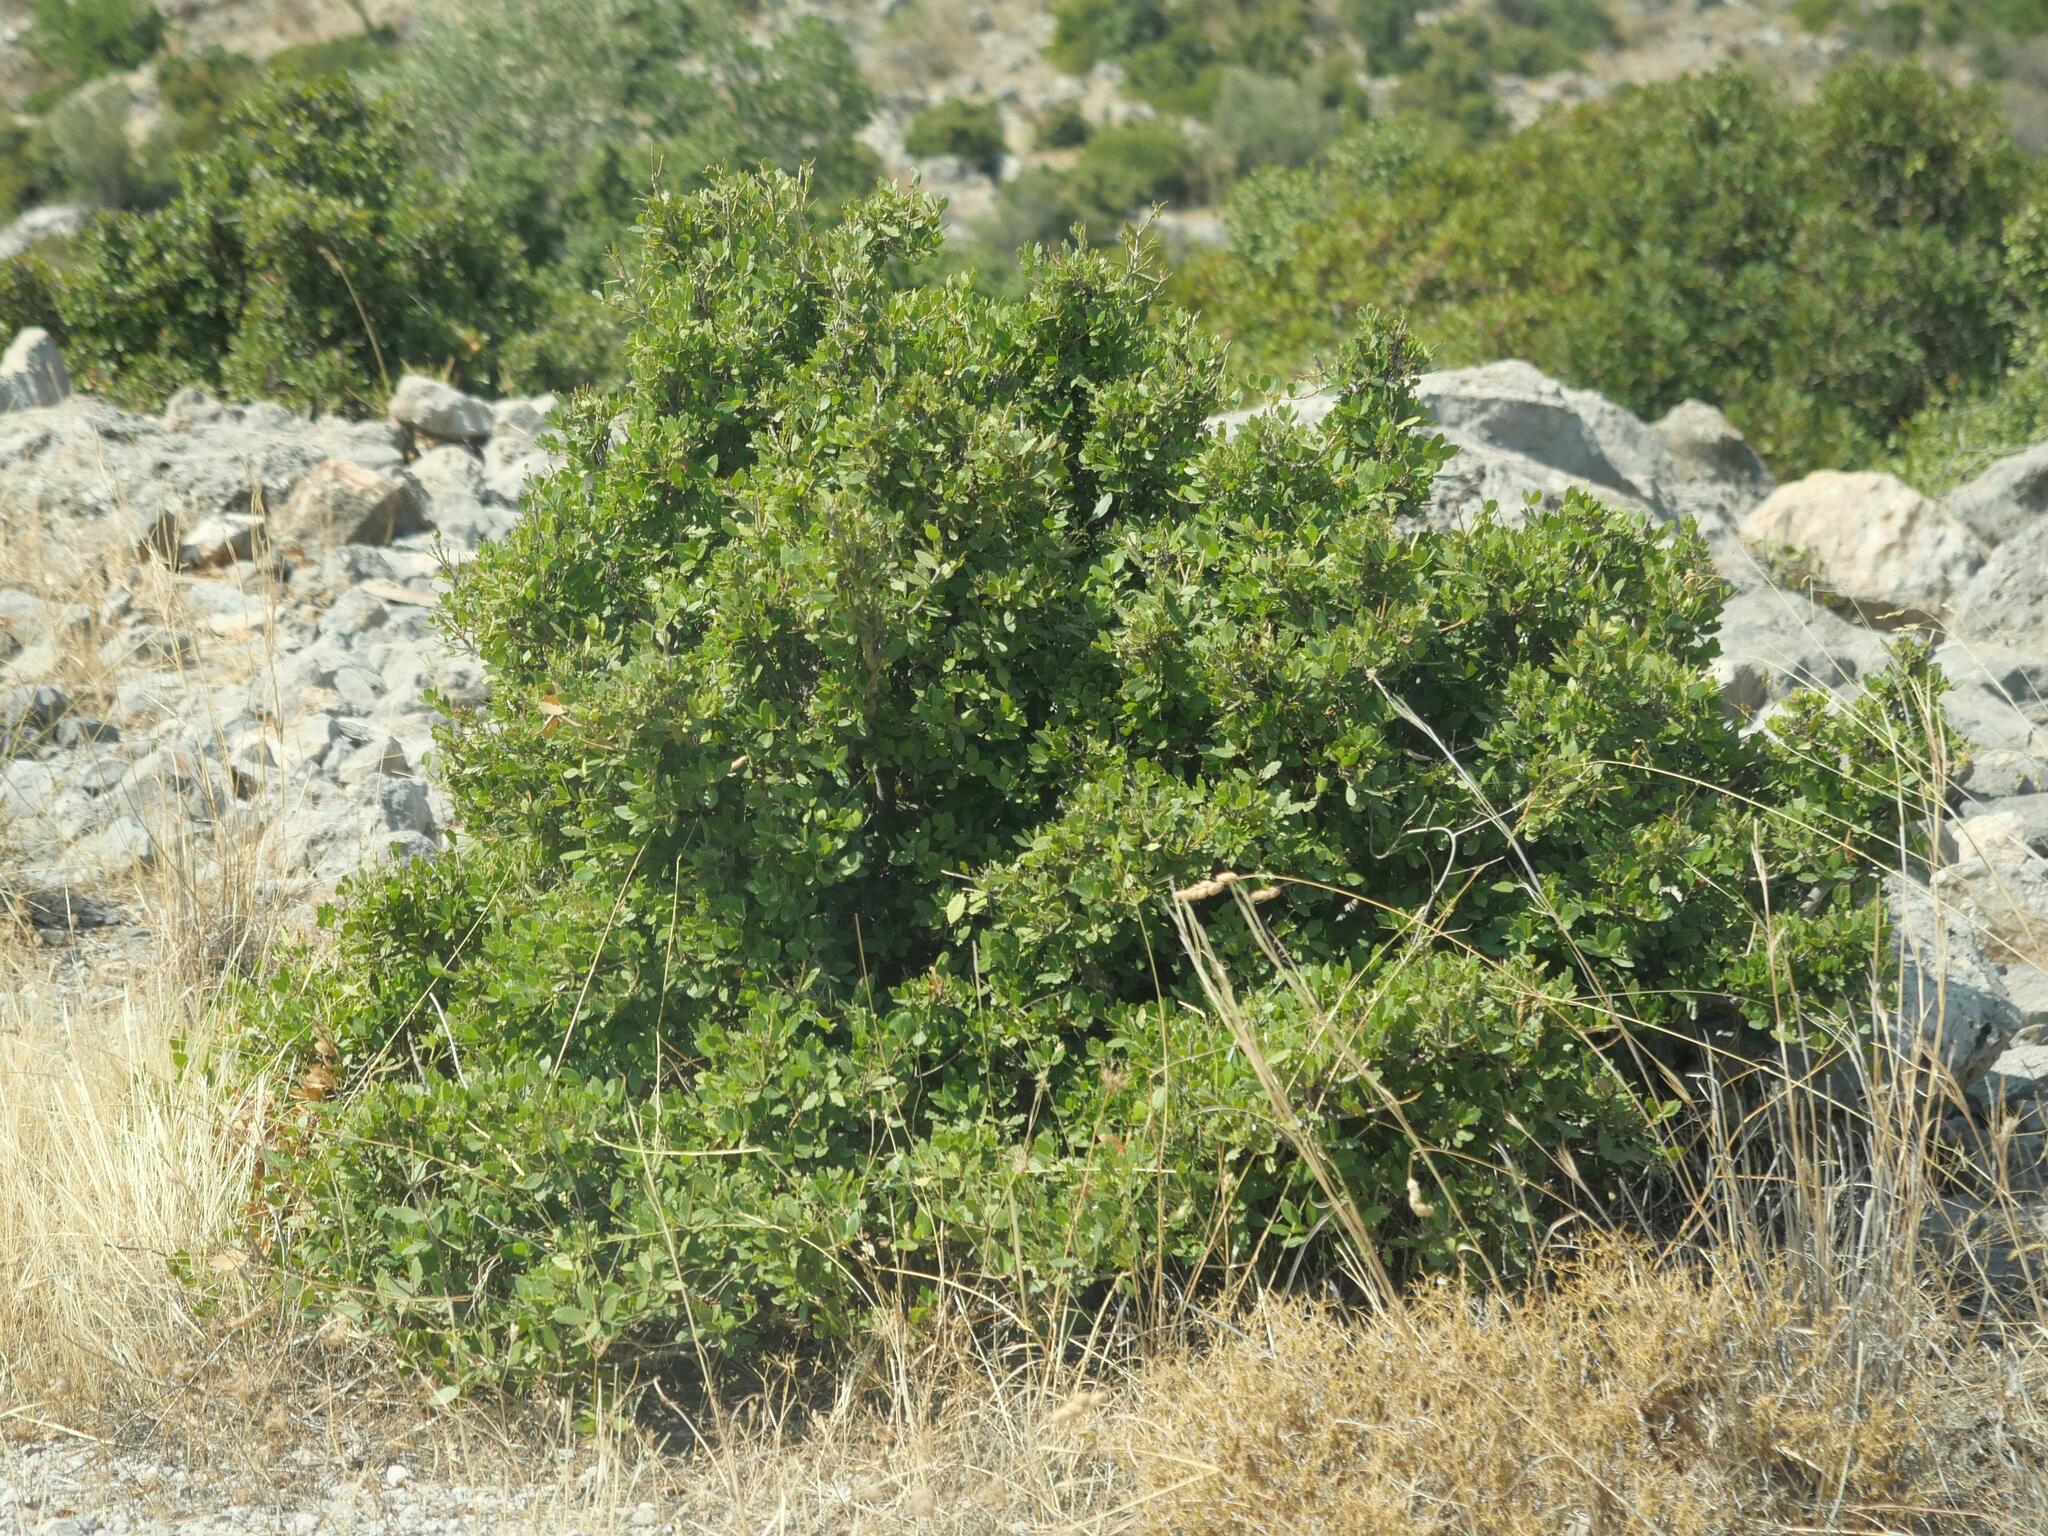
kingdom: Plantae
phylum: Tracheophyta
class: Magnoliopsida
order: Sapindales
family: Anacardiaceae
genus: Pistacia
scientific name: Pistacia lentiscus
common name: Lentisk
